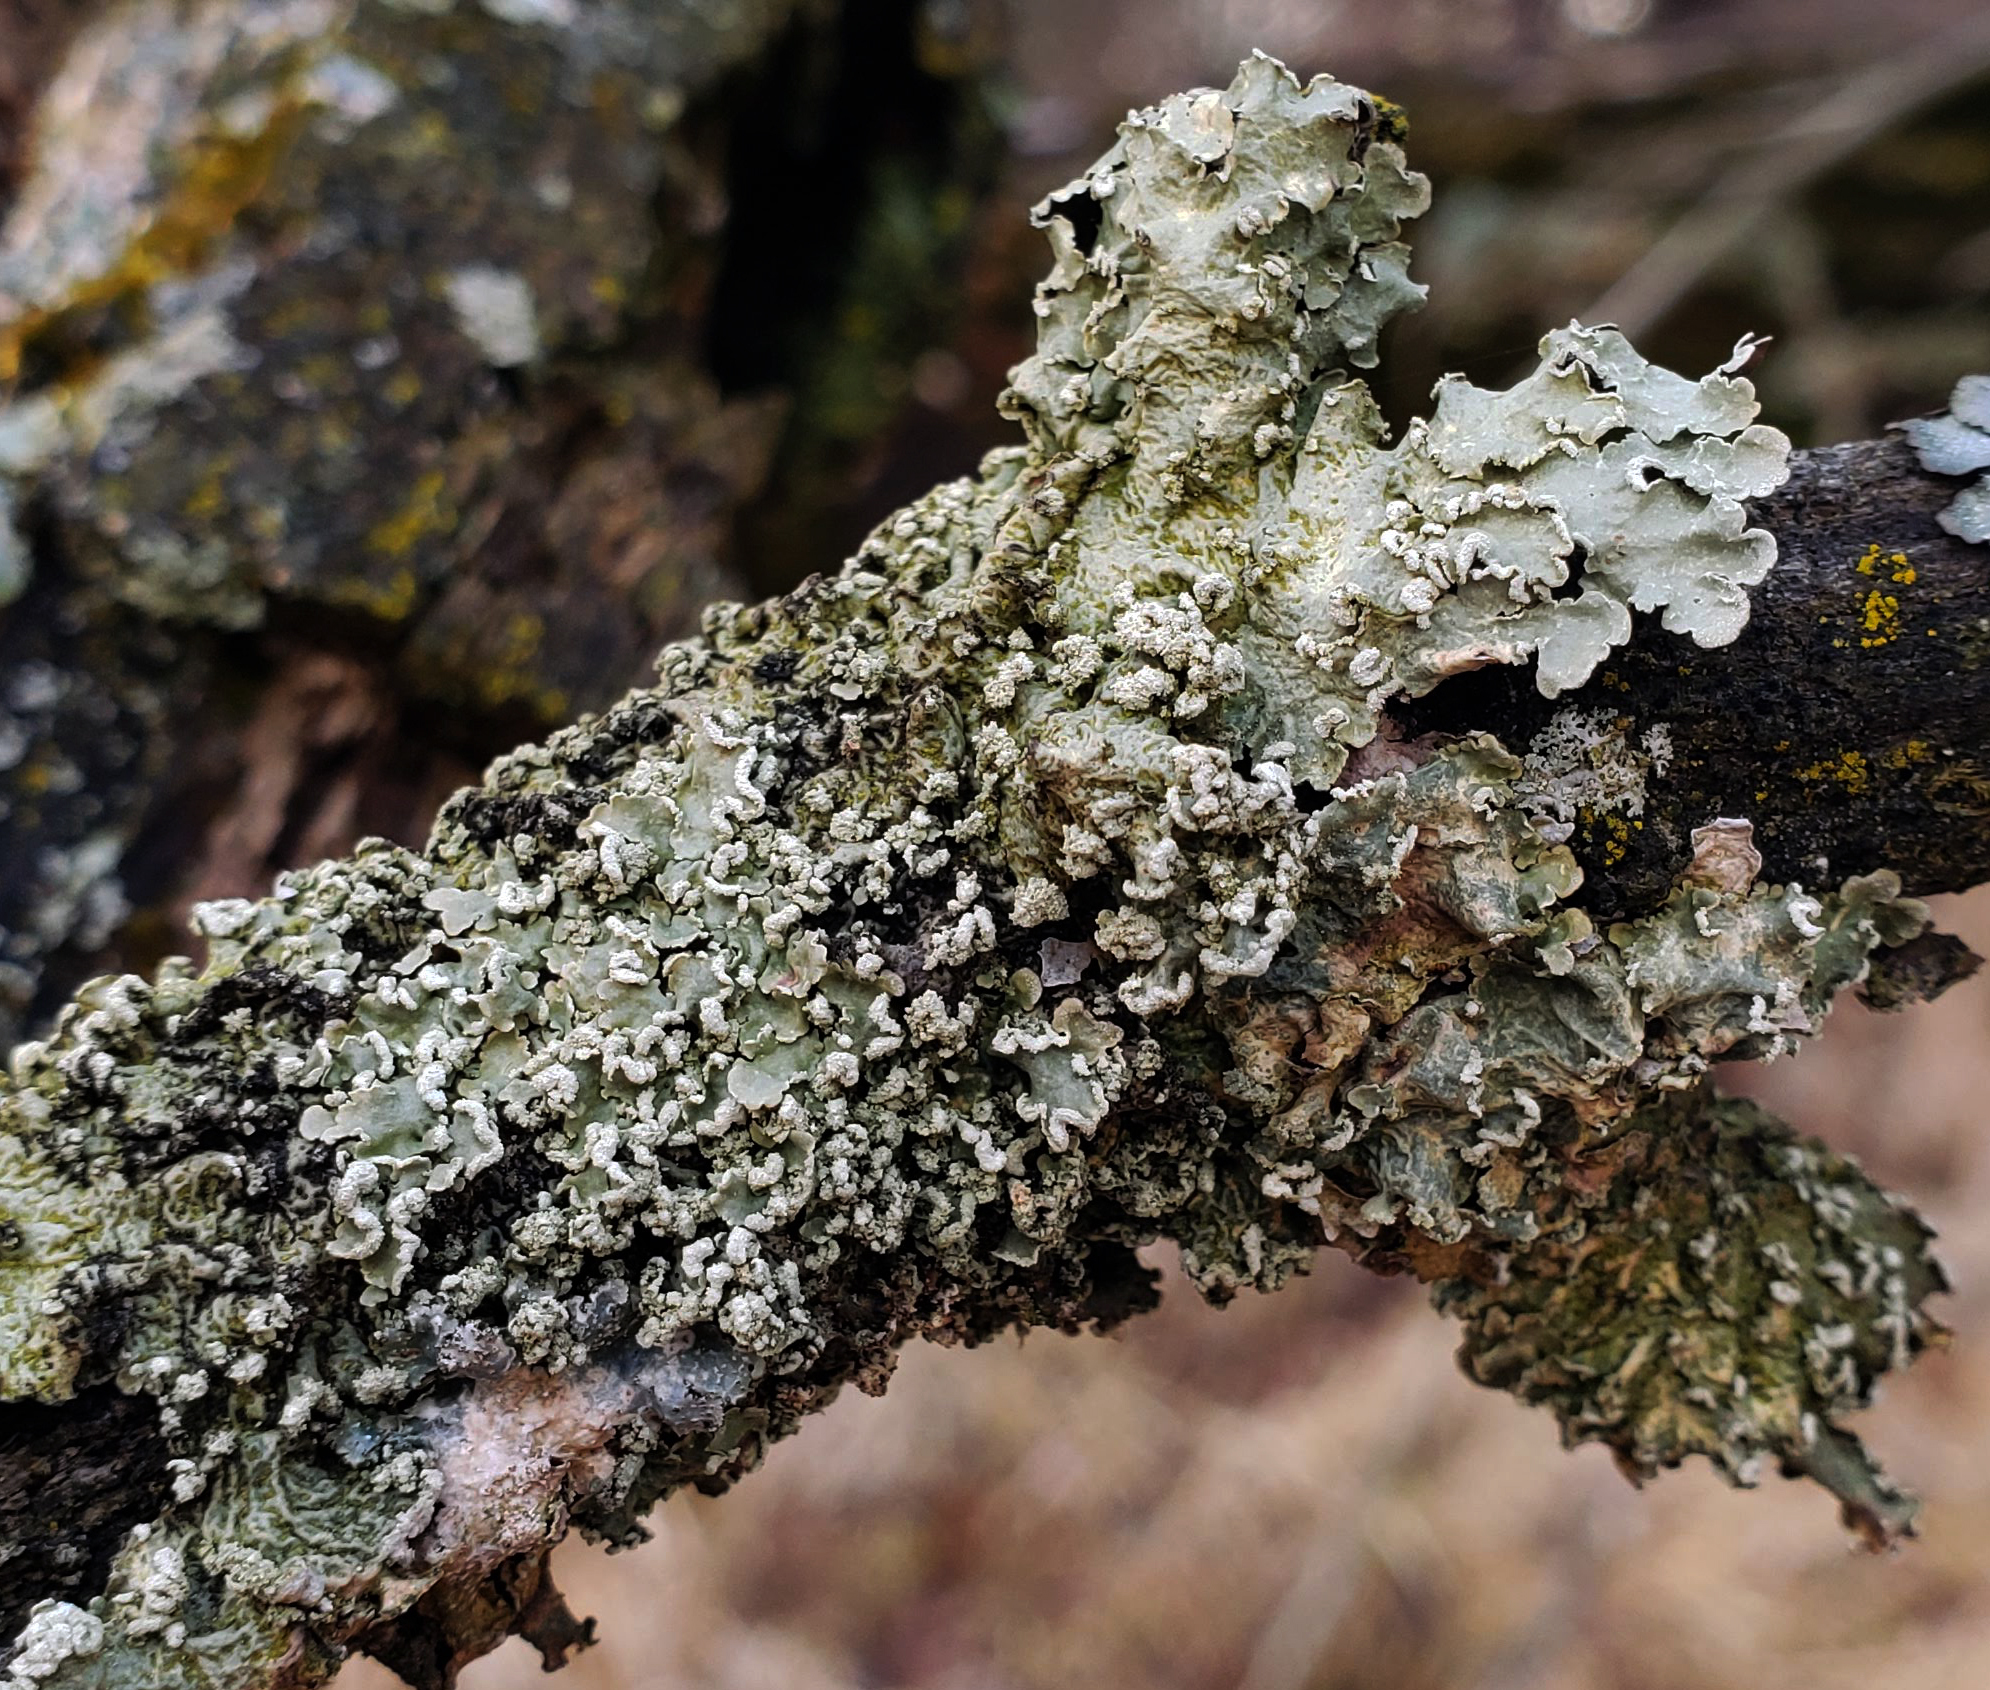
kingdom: Fungi
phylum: Ascomycota
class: Lecanoromycetes
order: Lecanorales
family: Parmeliaceae
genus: Flavopunctelia
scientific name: Flavopunctelia soredica
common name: Powder-edged speckled greenshield
